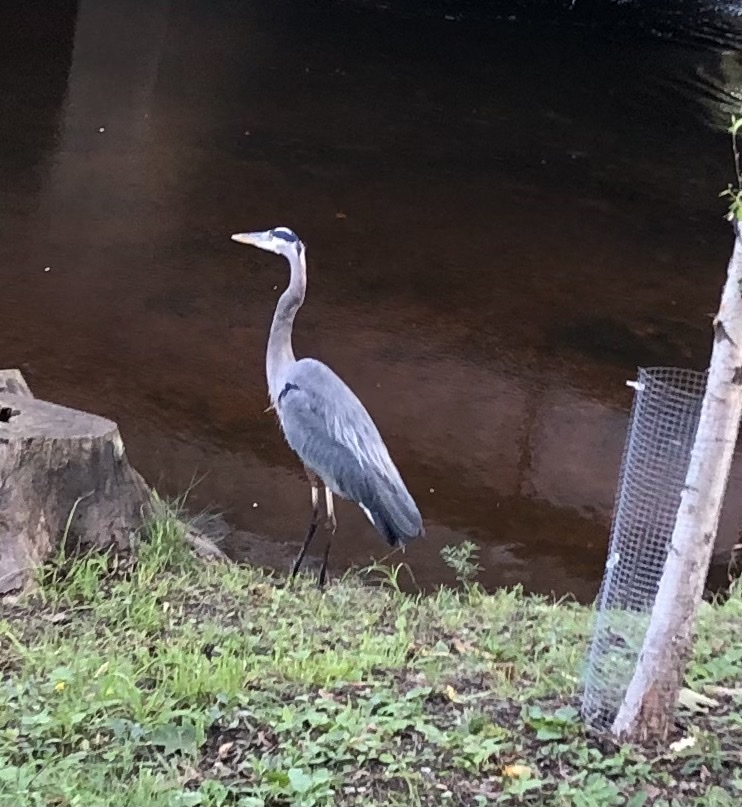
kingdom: Animalia
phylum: Chordata
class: Aves
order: Pelecaniformes
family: Ardeidae
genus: Ardea
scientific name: Ardea herodias
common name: Great blue heron
